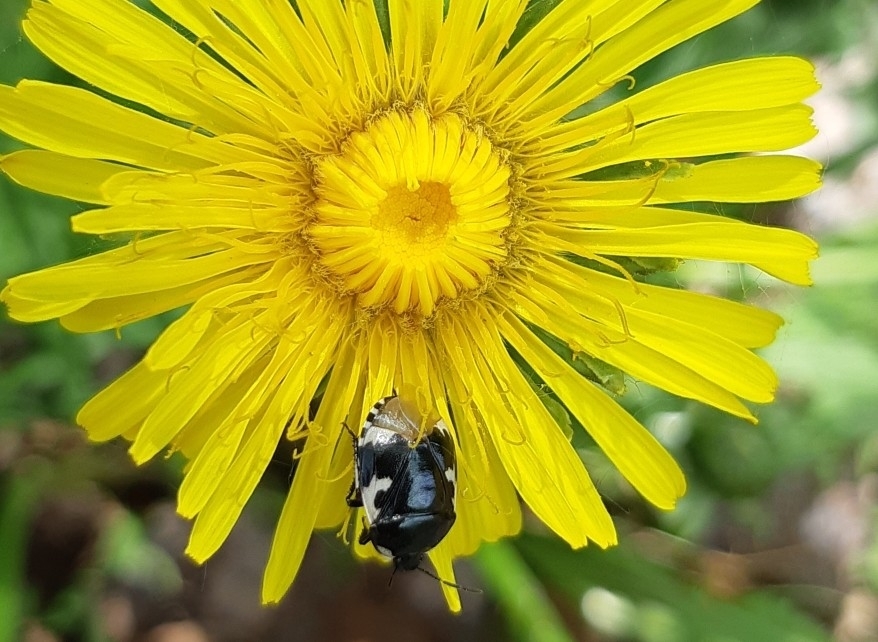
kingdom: Animalia
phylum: Arthropoda
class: Insecta
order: Hemiptera
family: Cydnidae
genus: Tritomegas
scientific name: Tritomegas bicolor
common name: Pied shieldbug
